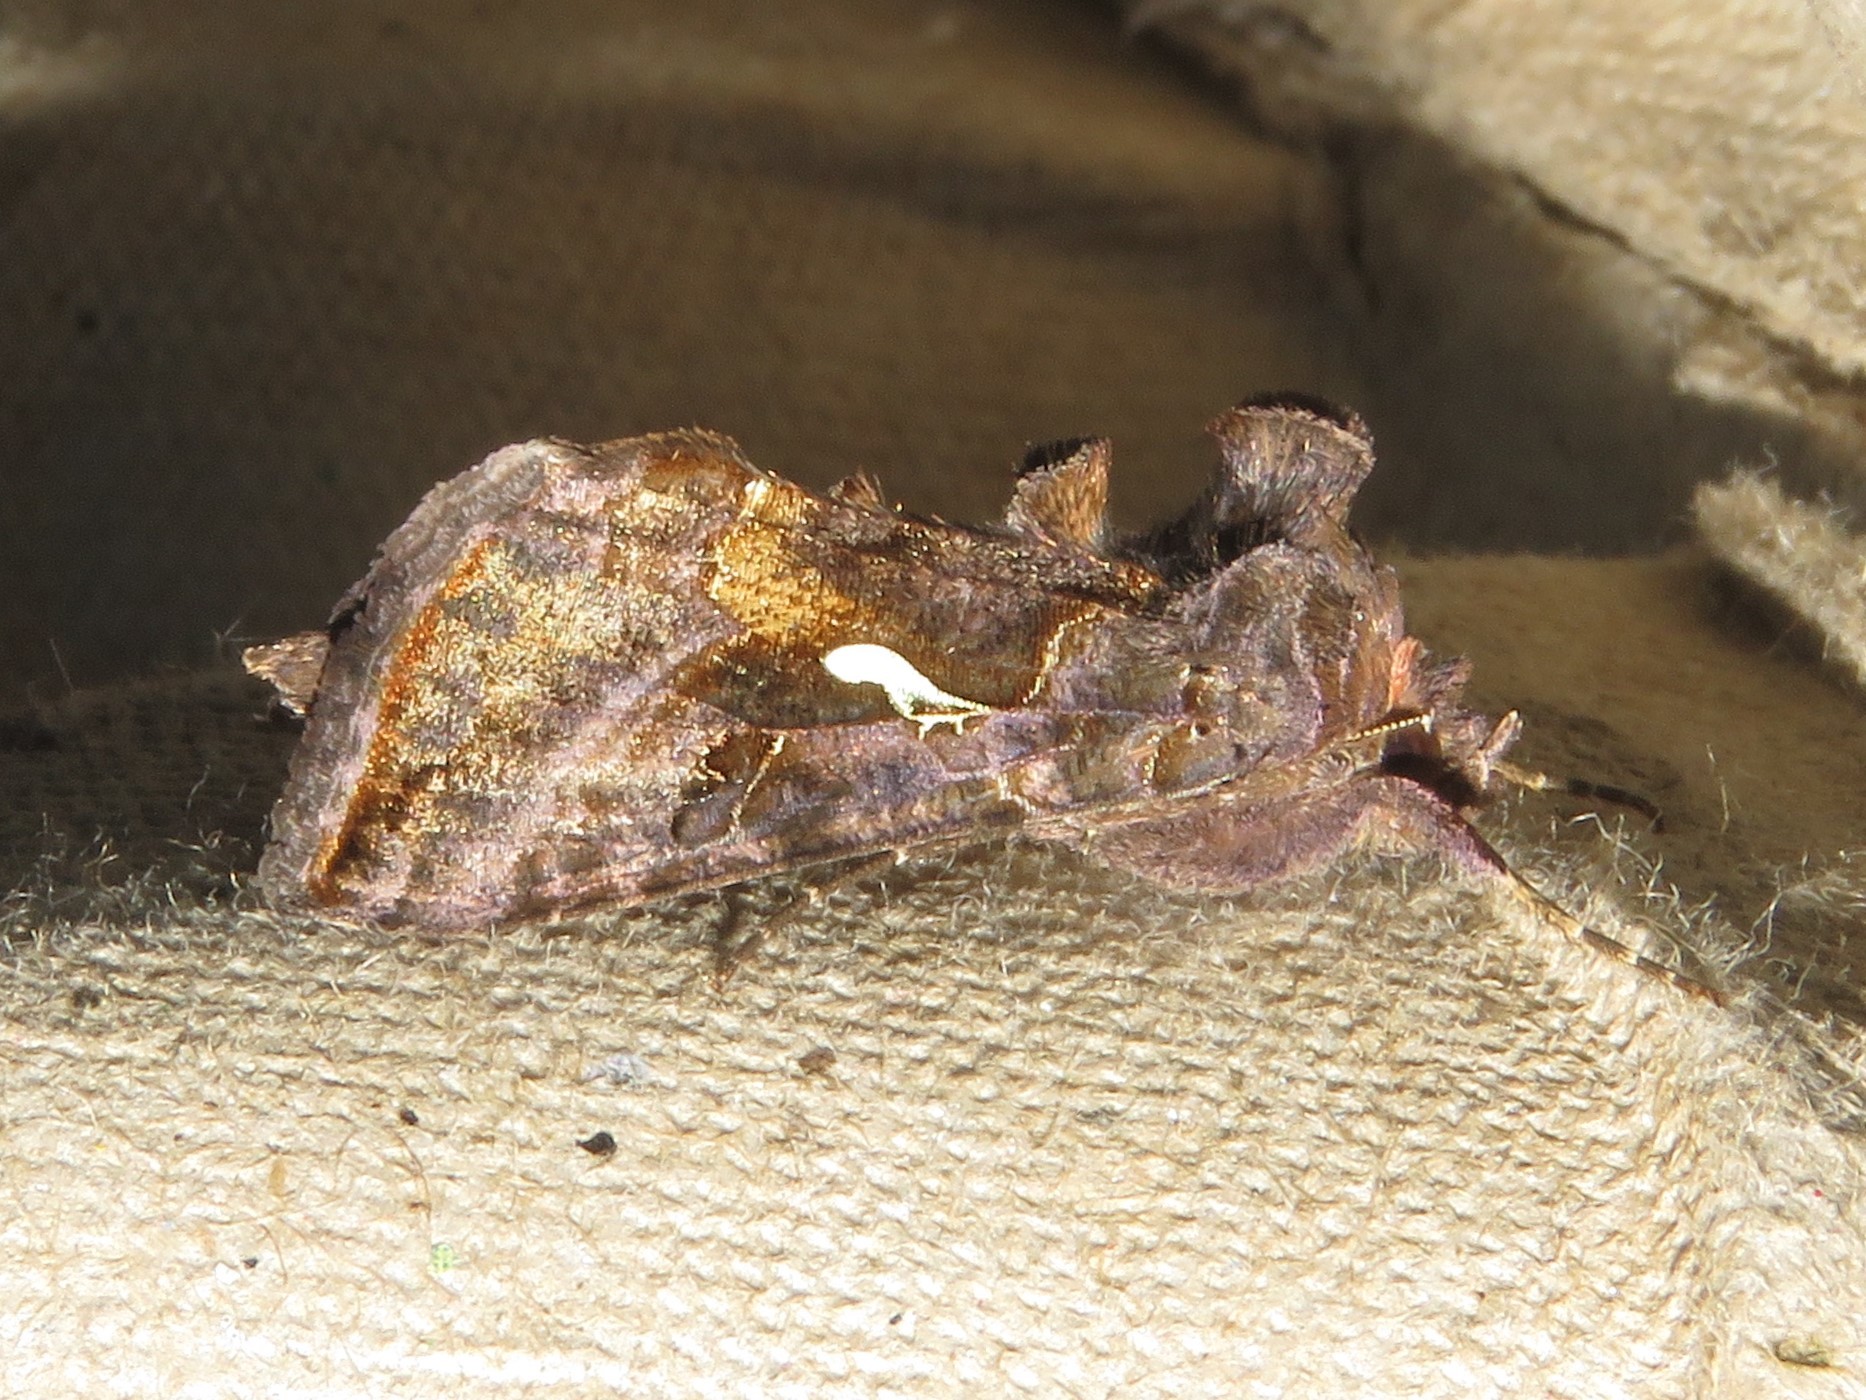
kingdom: Animalia
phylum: Arthropoda
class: Insecta
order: Lepidoptera
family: Noctuidae
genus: Autographa
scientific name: Autographa precationis
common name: Common looper moth
